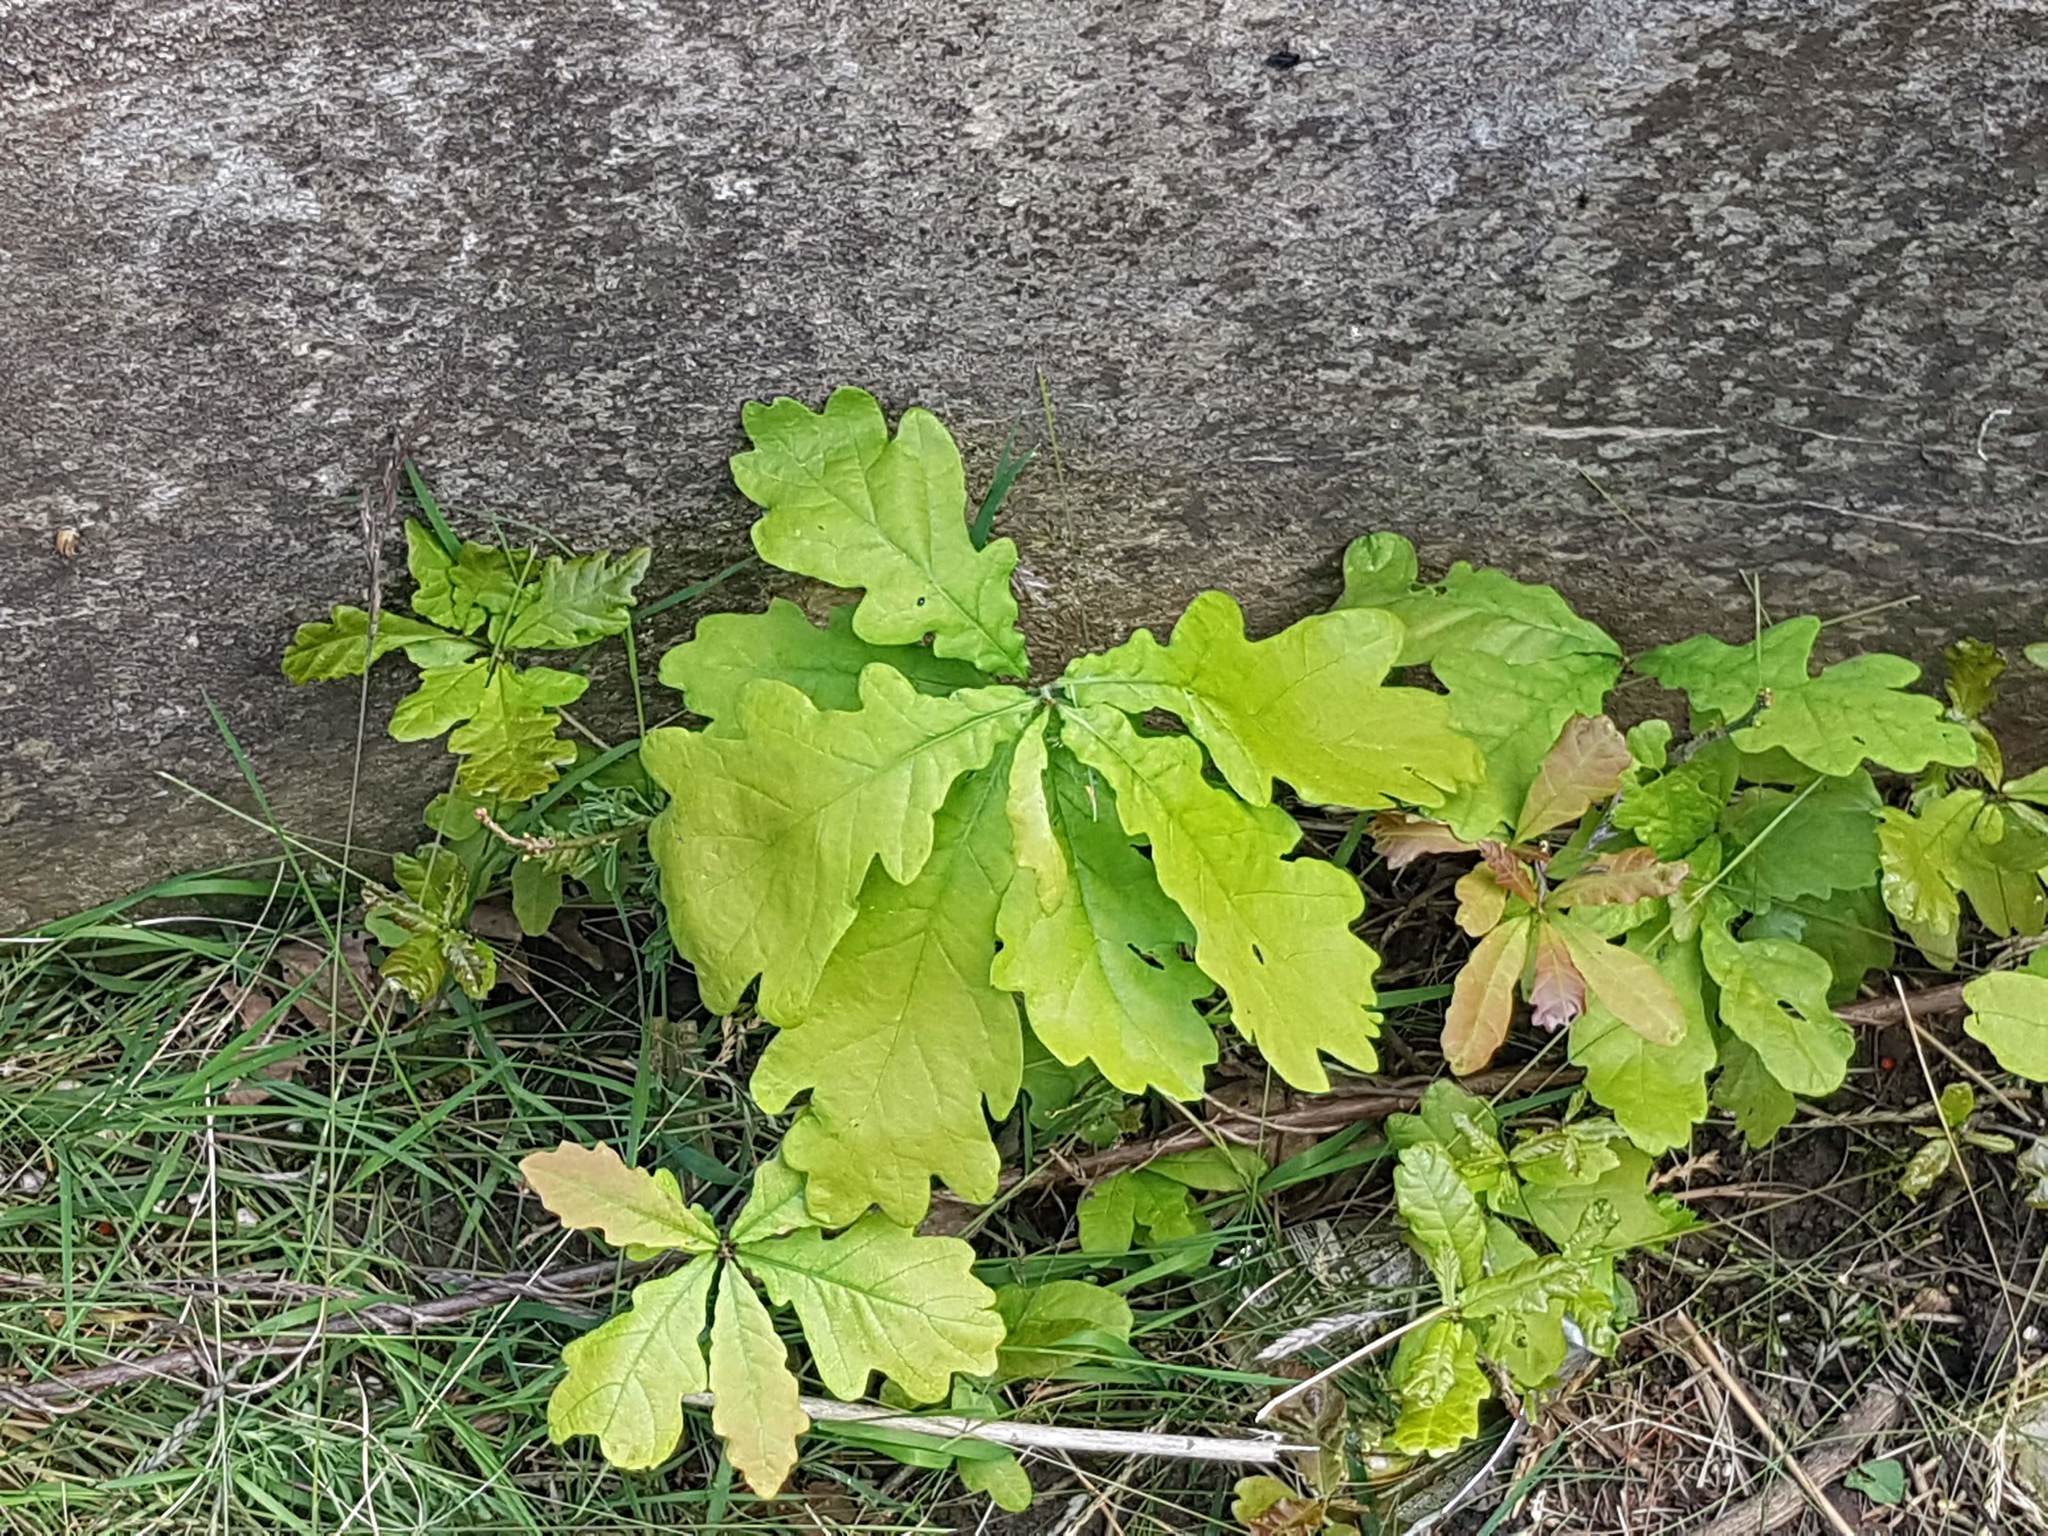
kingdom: Plantae
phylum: Tracheophyta
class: Magnoliopsida
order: Fagales
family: Fagaceae
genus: Quercus
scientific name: Quercus robur
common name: Pedunculate oak
